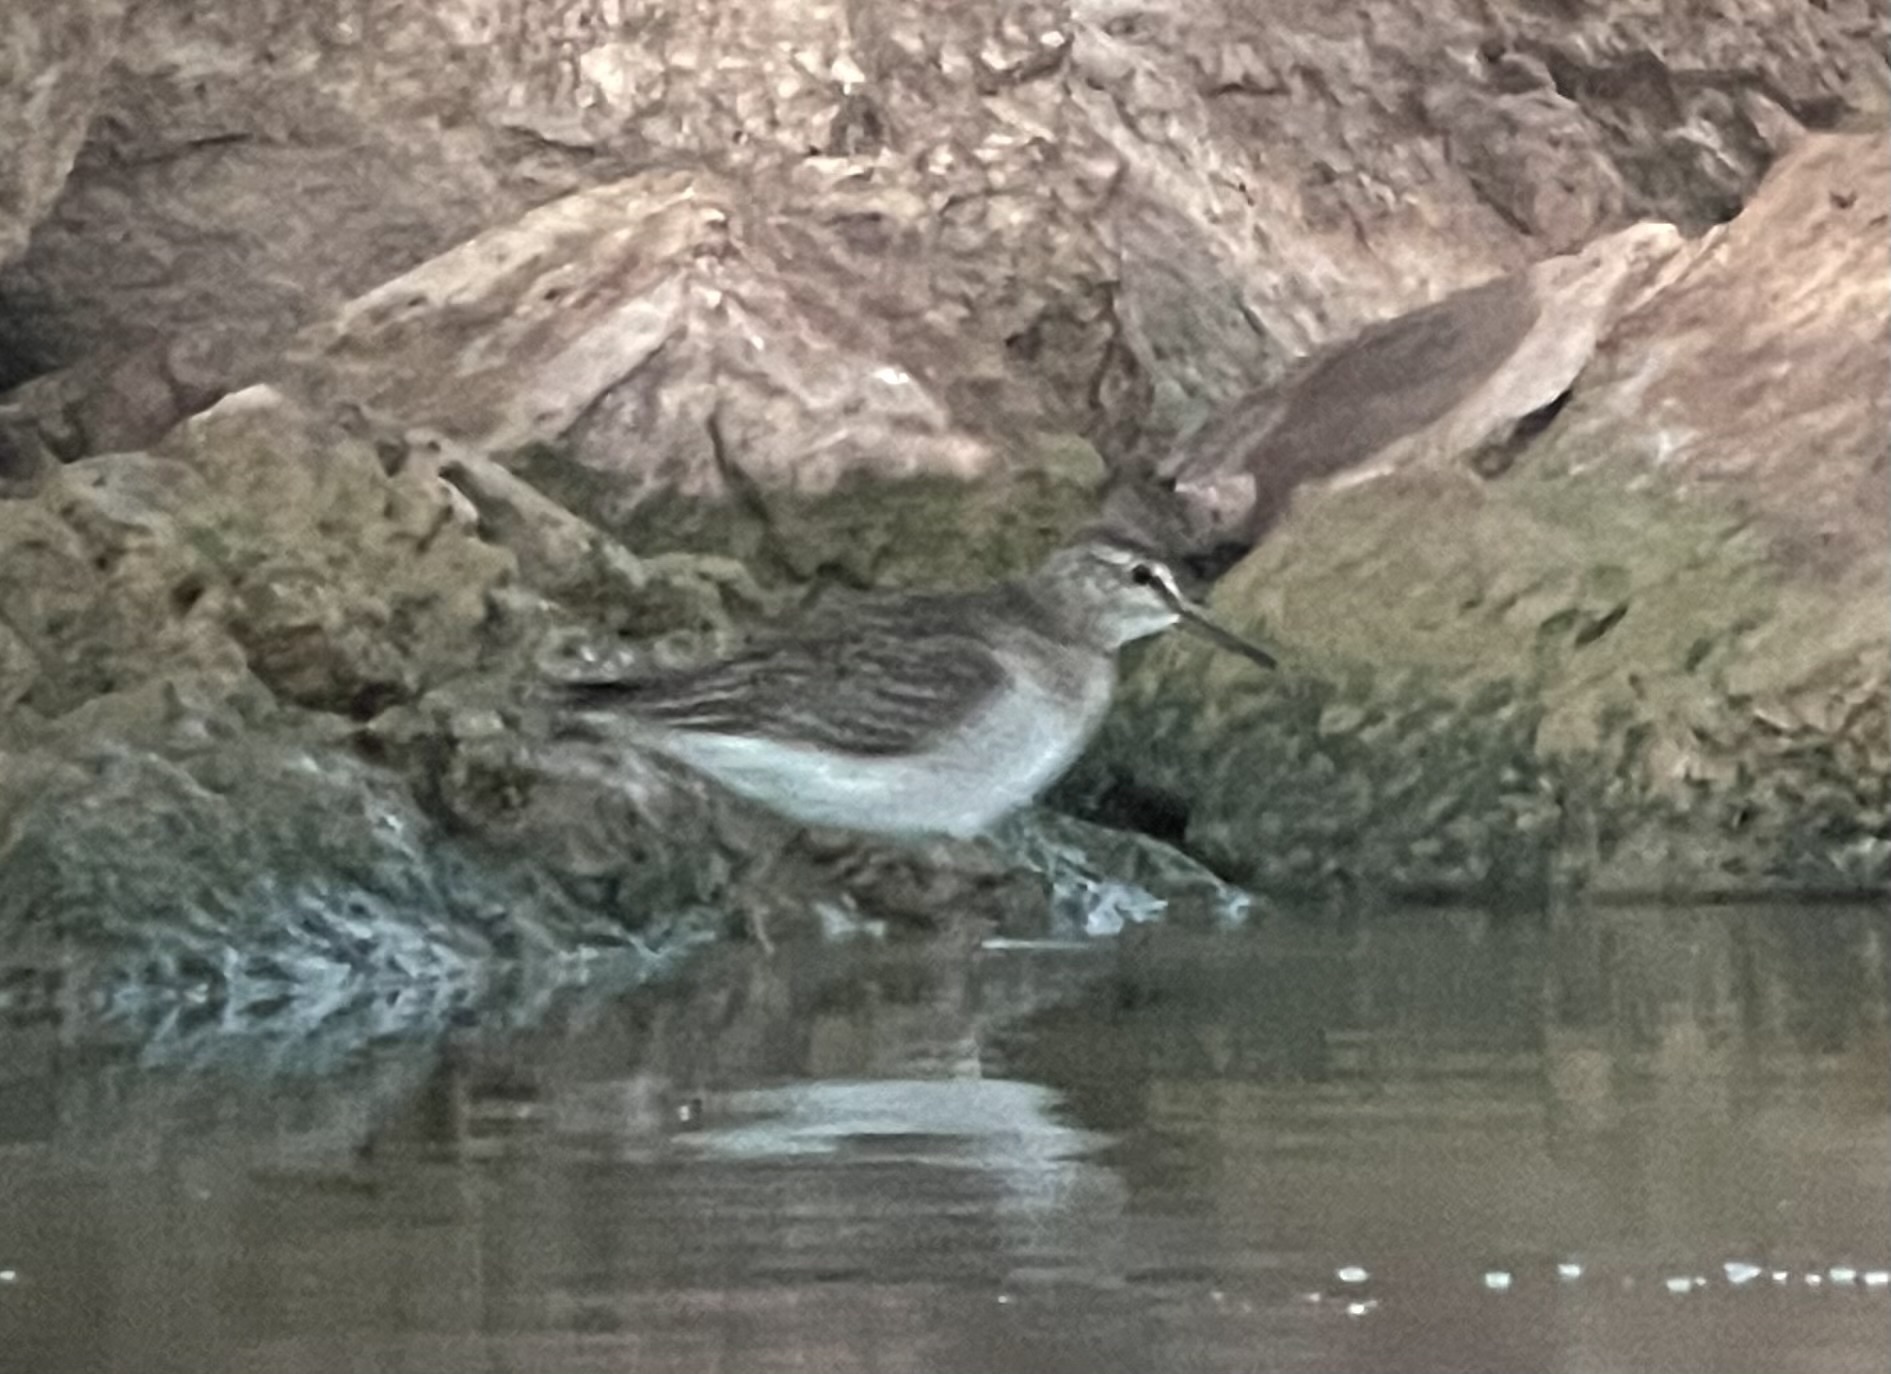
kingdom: Animalia
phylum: Chordata
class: Aves
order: Charadriiformes
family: Scolopacidae
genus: Tringa
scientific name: Tringa glareola
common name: Wood sandpiper
